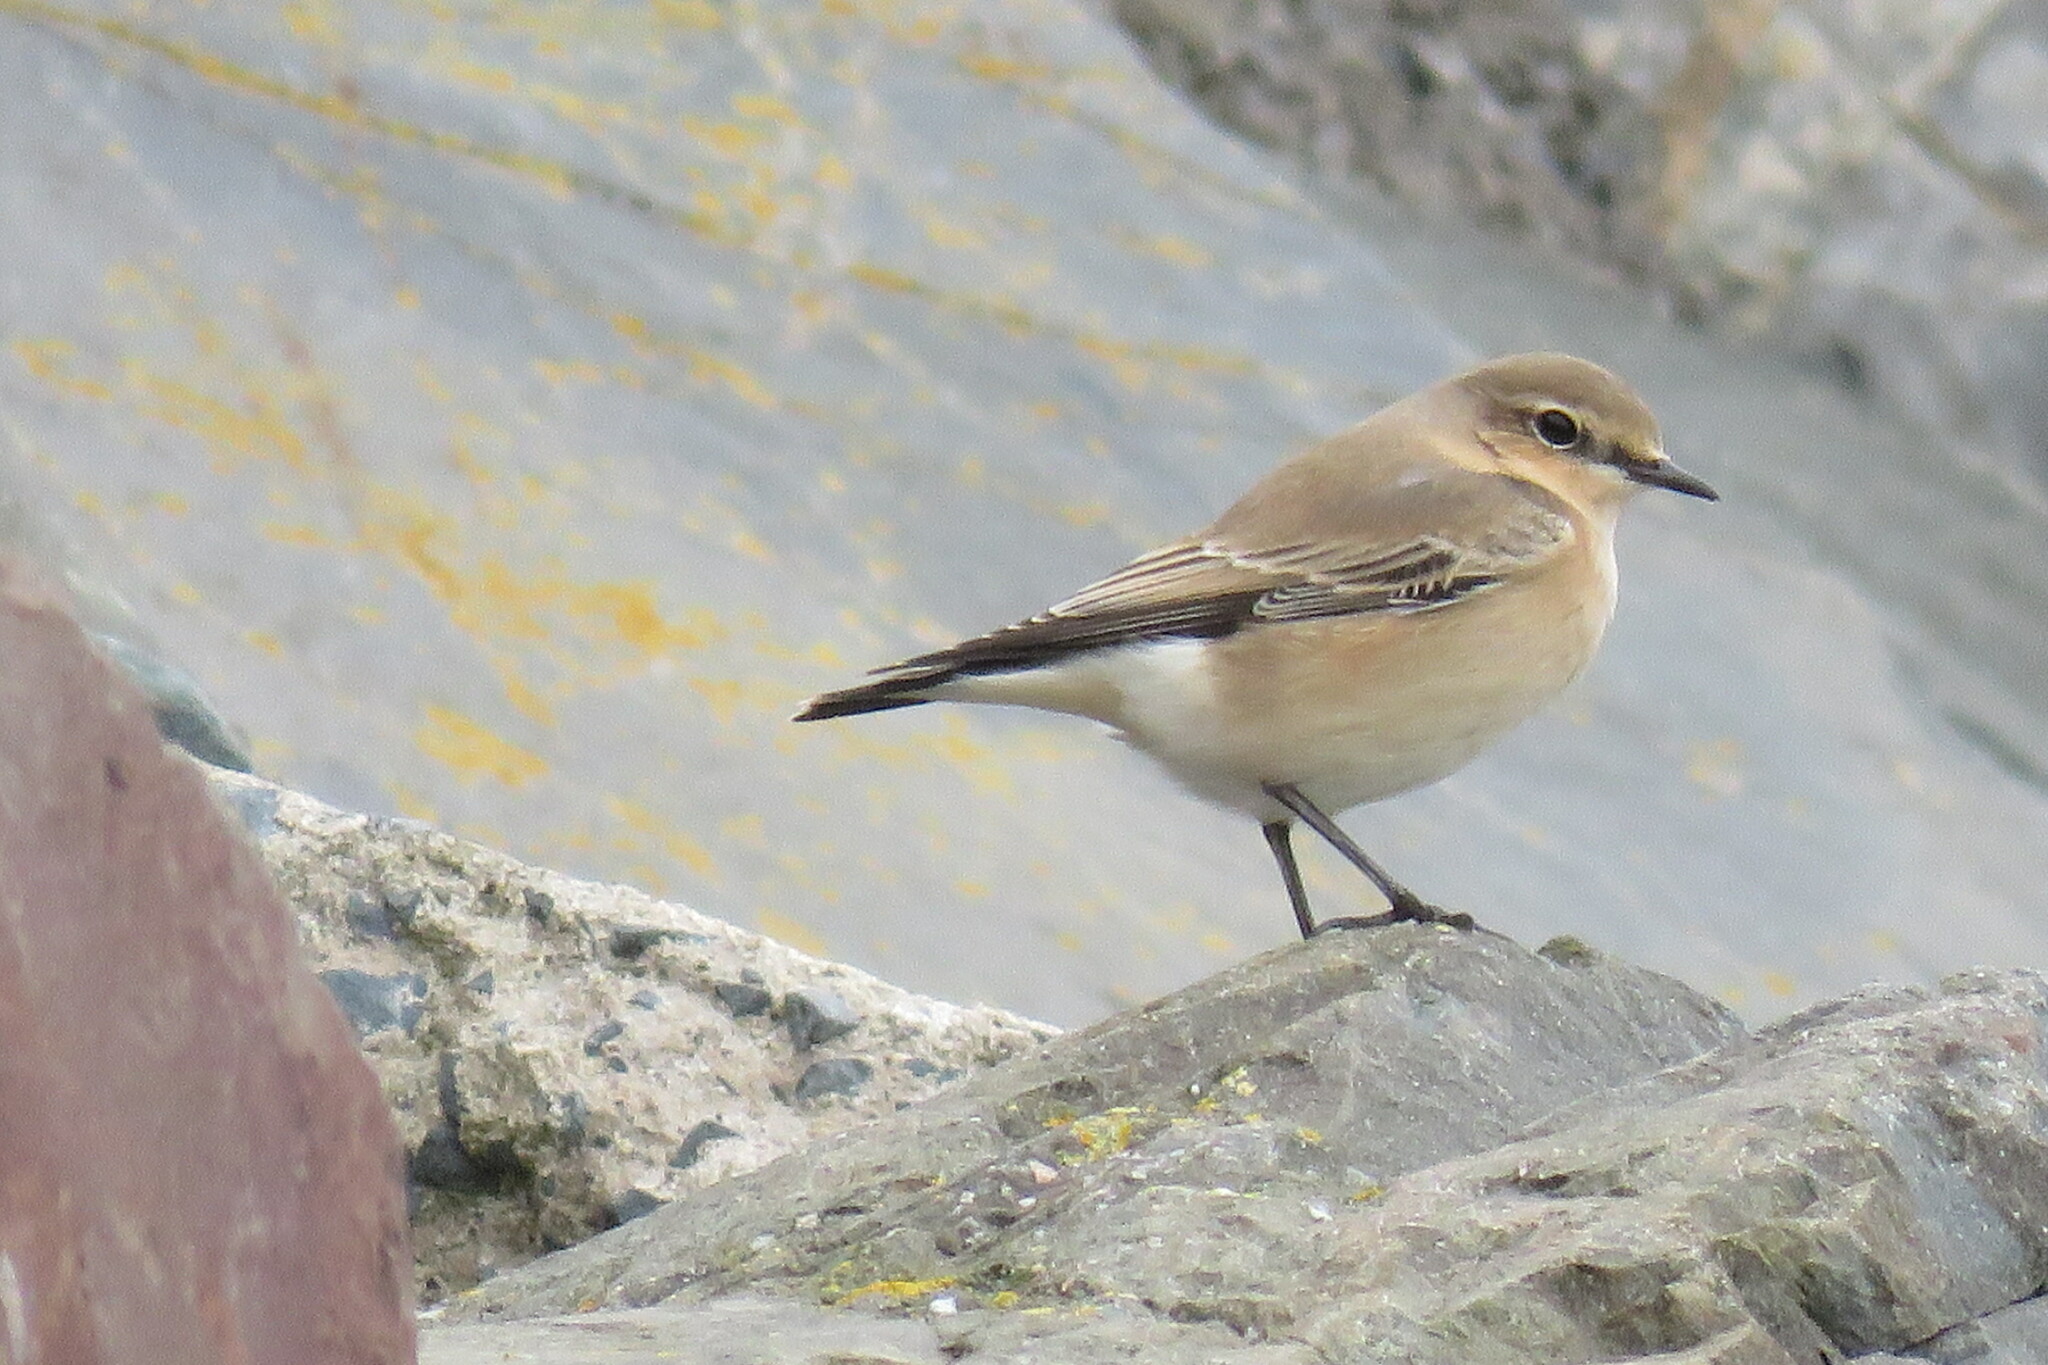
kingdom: Animalia
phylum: Chordata
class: Aves
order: Passeriformes
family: Muscicapidae
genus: Oenanthe
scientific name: Oenanthe oenanthe
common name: Northern wheatear
